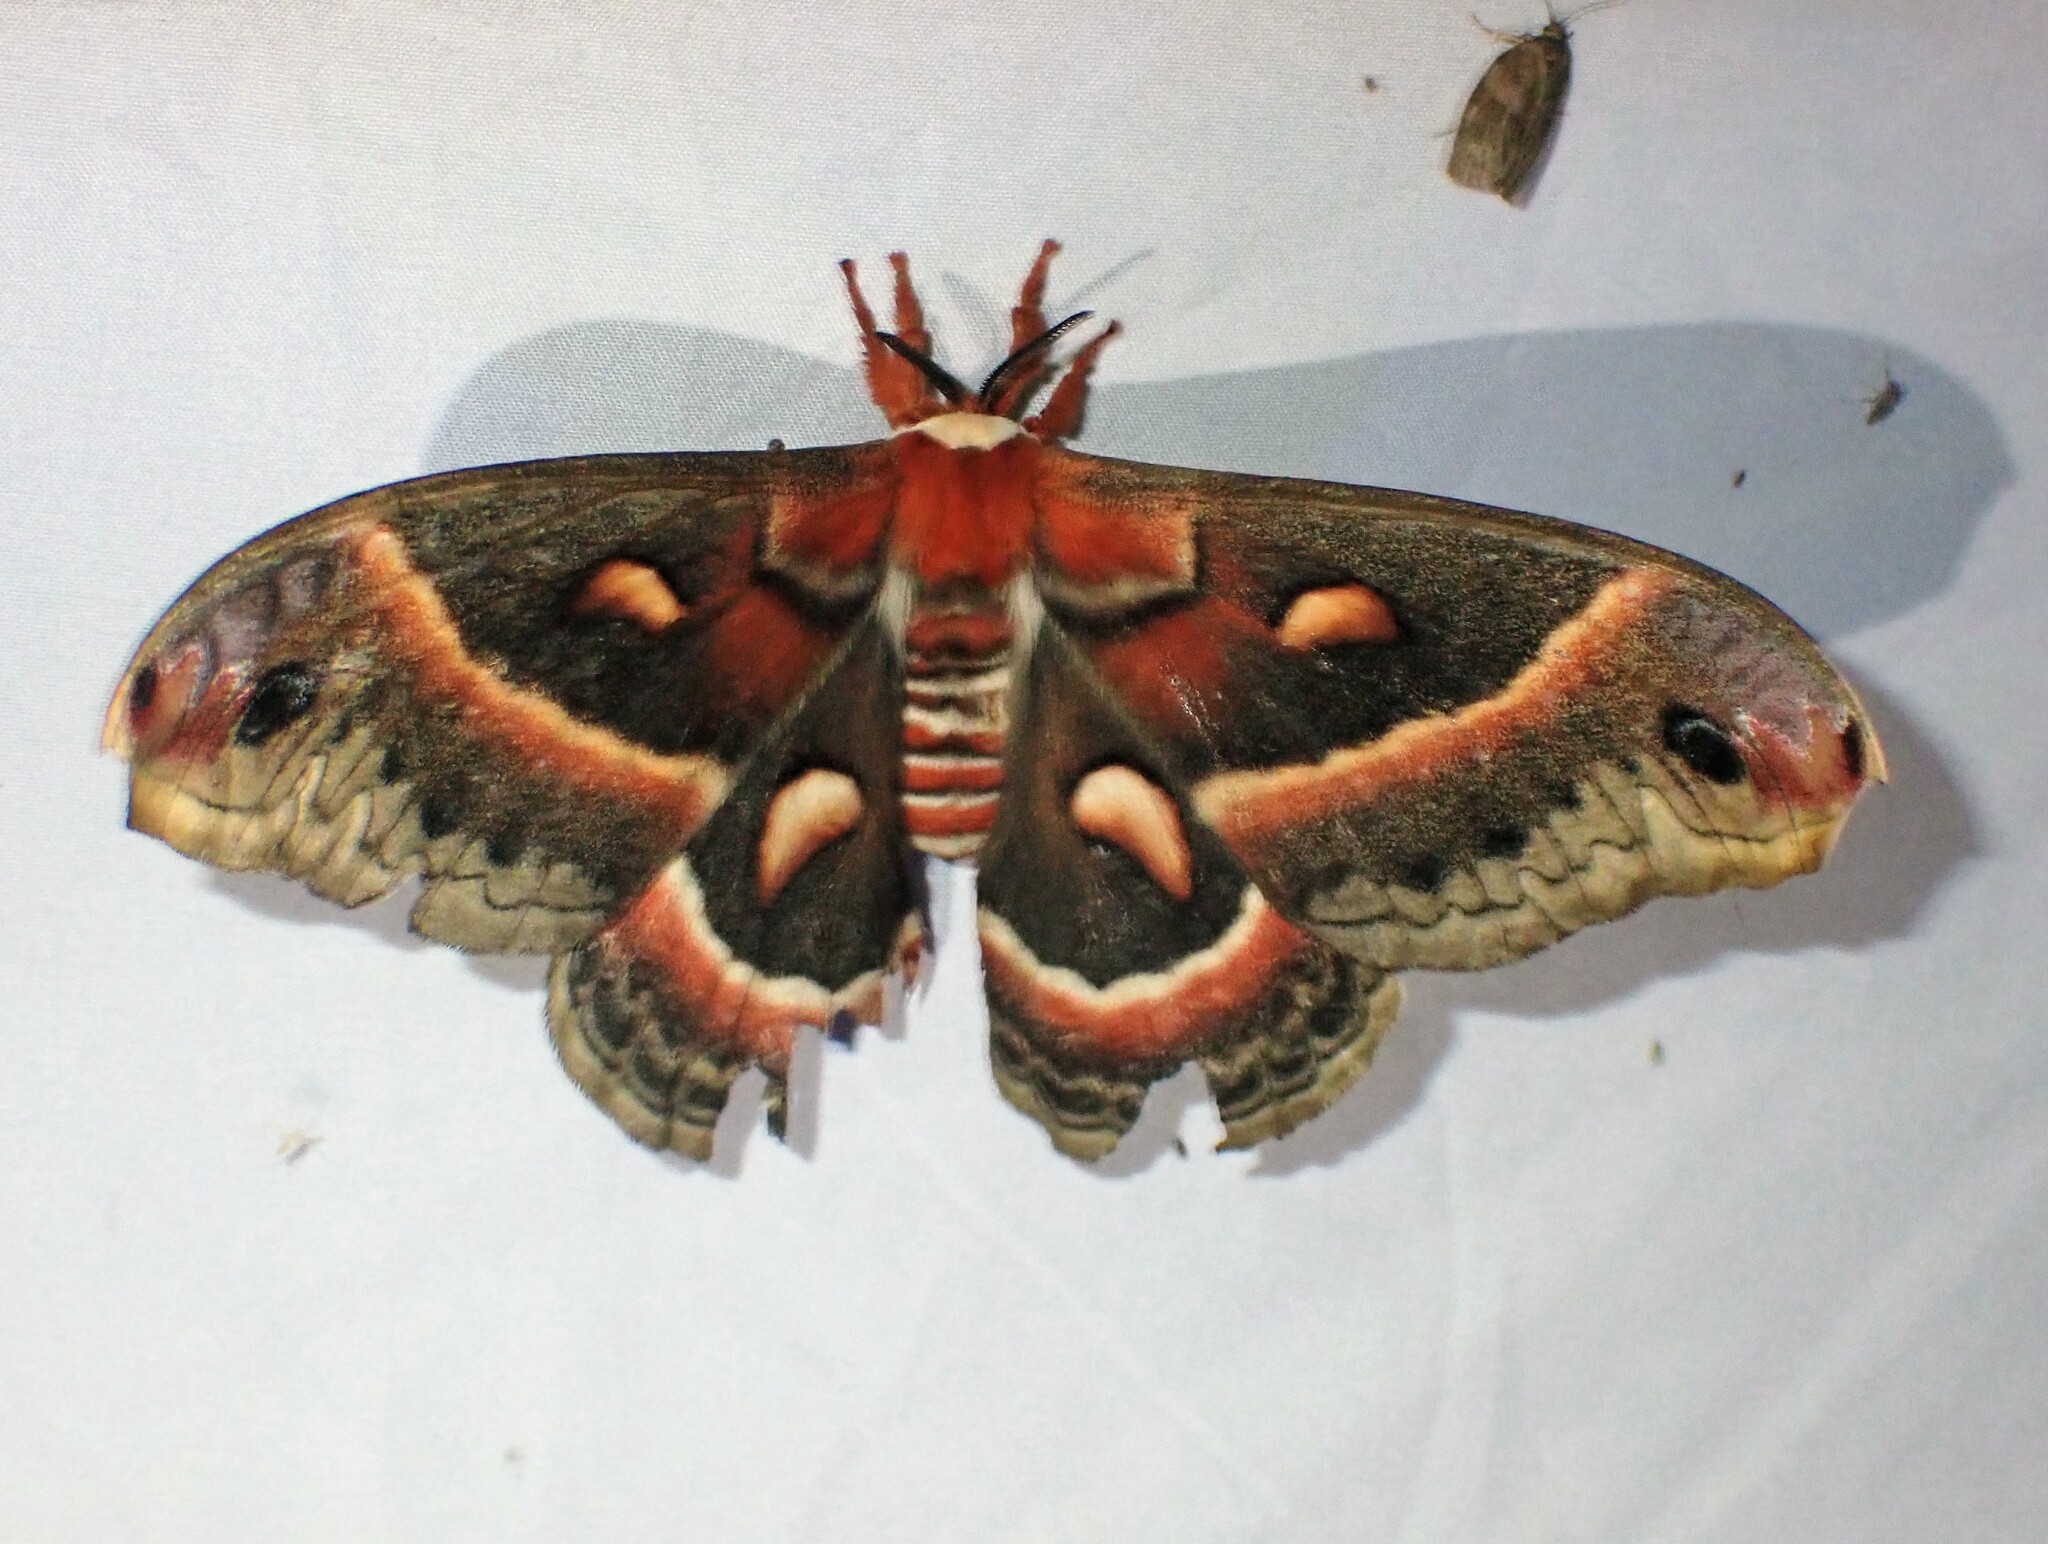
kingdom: Animalia
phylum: Arthropoda
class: Insecta
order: Lepidoptera
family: Saturniidae
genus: Hyalophora
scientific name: Hyalophora cecropia
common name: Cecropia silkmoth
